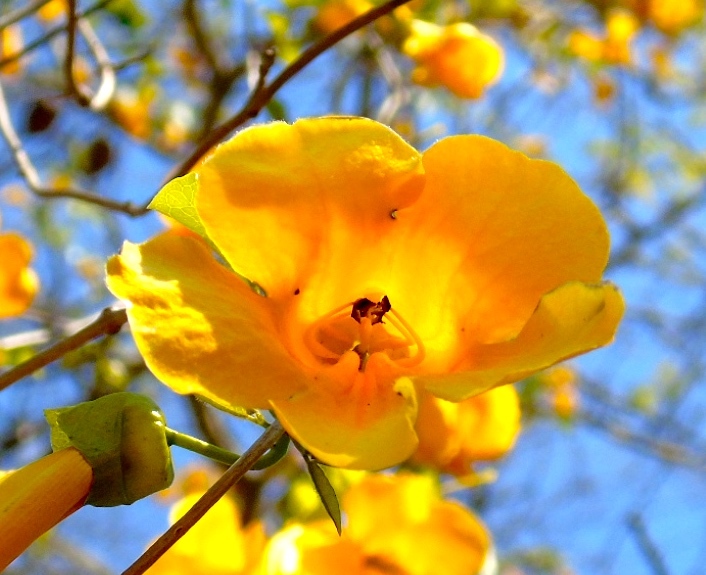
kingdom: Plantae
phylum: Tracheophyta
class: Magnoliopsida
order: Lamiales
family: Bignoniaceae
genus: Adenocalymma
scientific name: Adenocalymma inundatum
